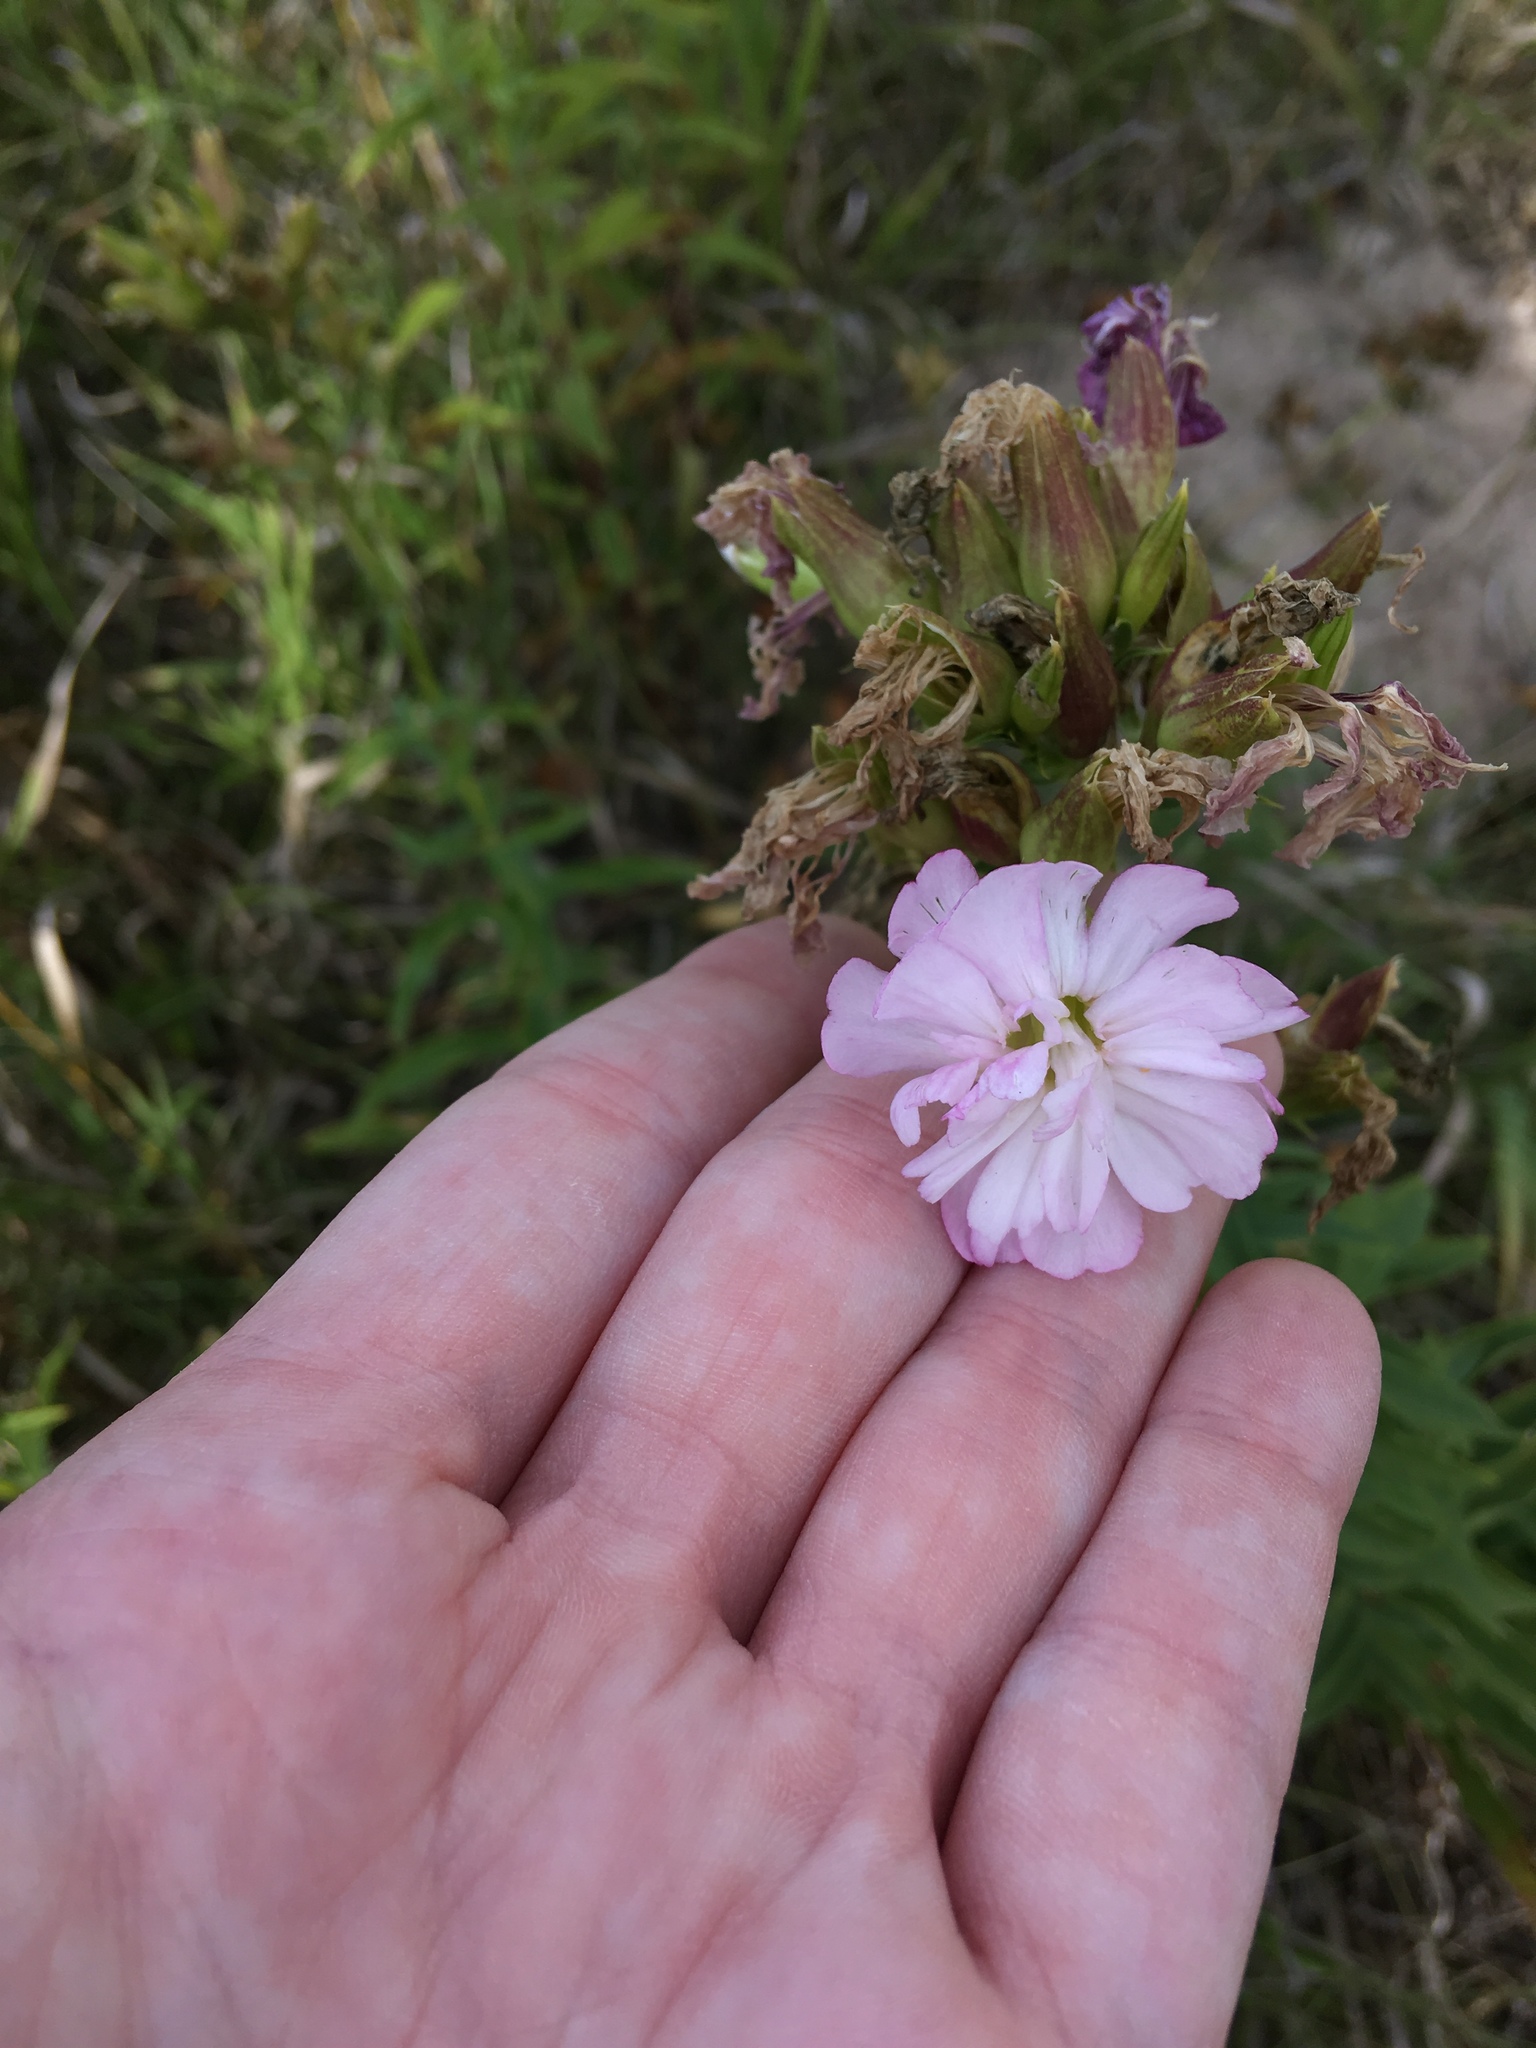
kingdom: Plantae
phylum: Tracheophyta
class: Magnoliopsida
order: Caryophyllales
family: Caryophyllaceae
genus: Saponaria
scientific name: Saponaria officinalis
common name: Soapwort
